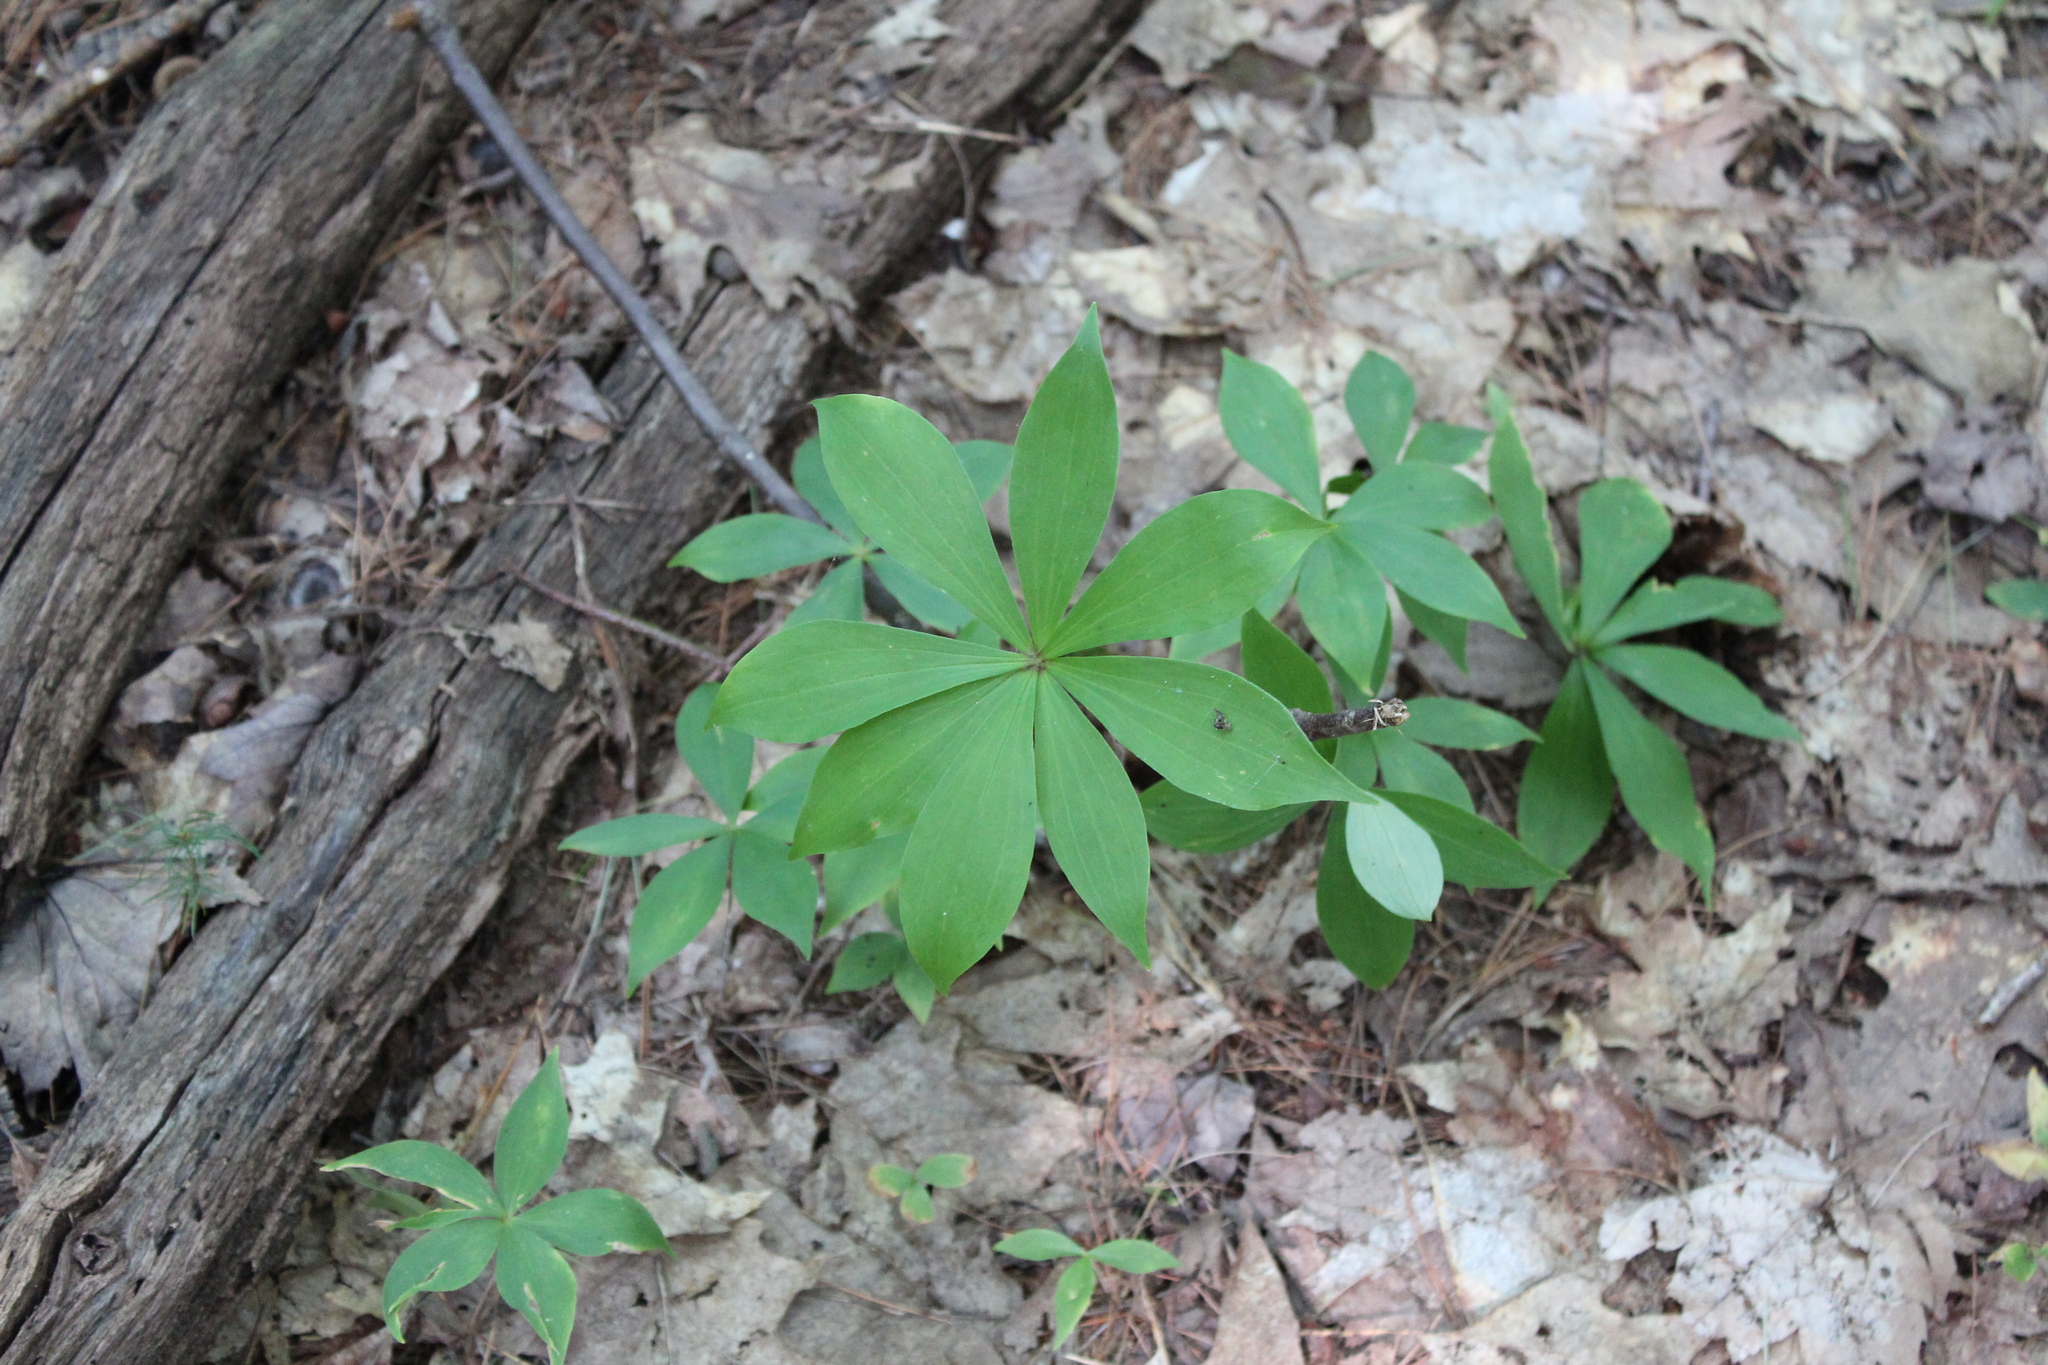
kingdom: Plantae
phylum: Tracheophyta
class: Liliopsida
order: Liliales
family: Liliaceae
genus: Medeola
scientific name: Medeola virginiana
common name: Indian cucumber-root
